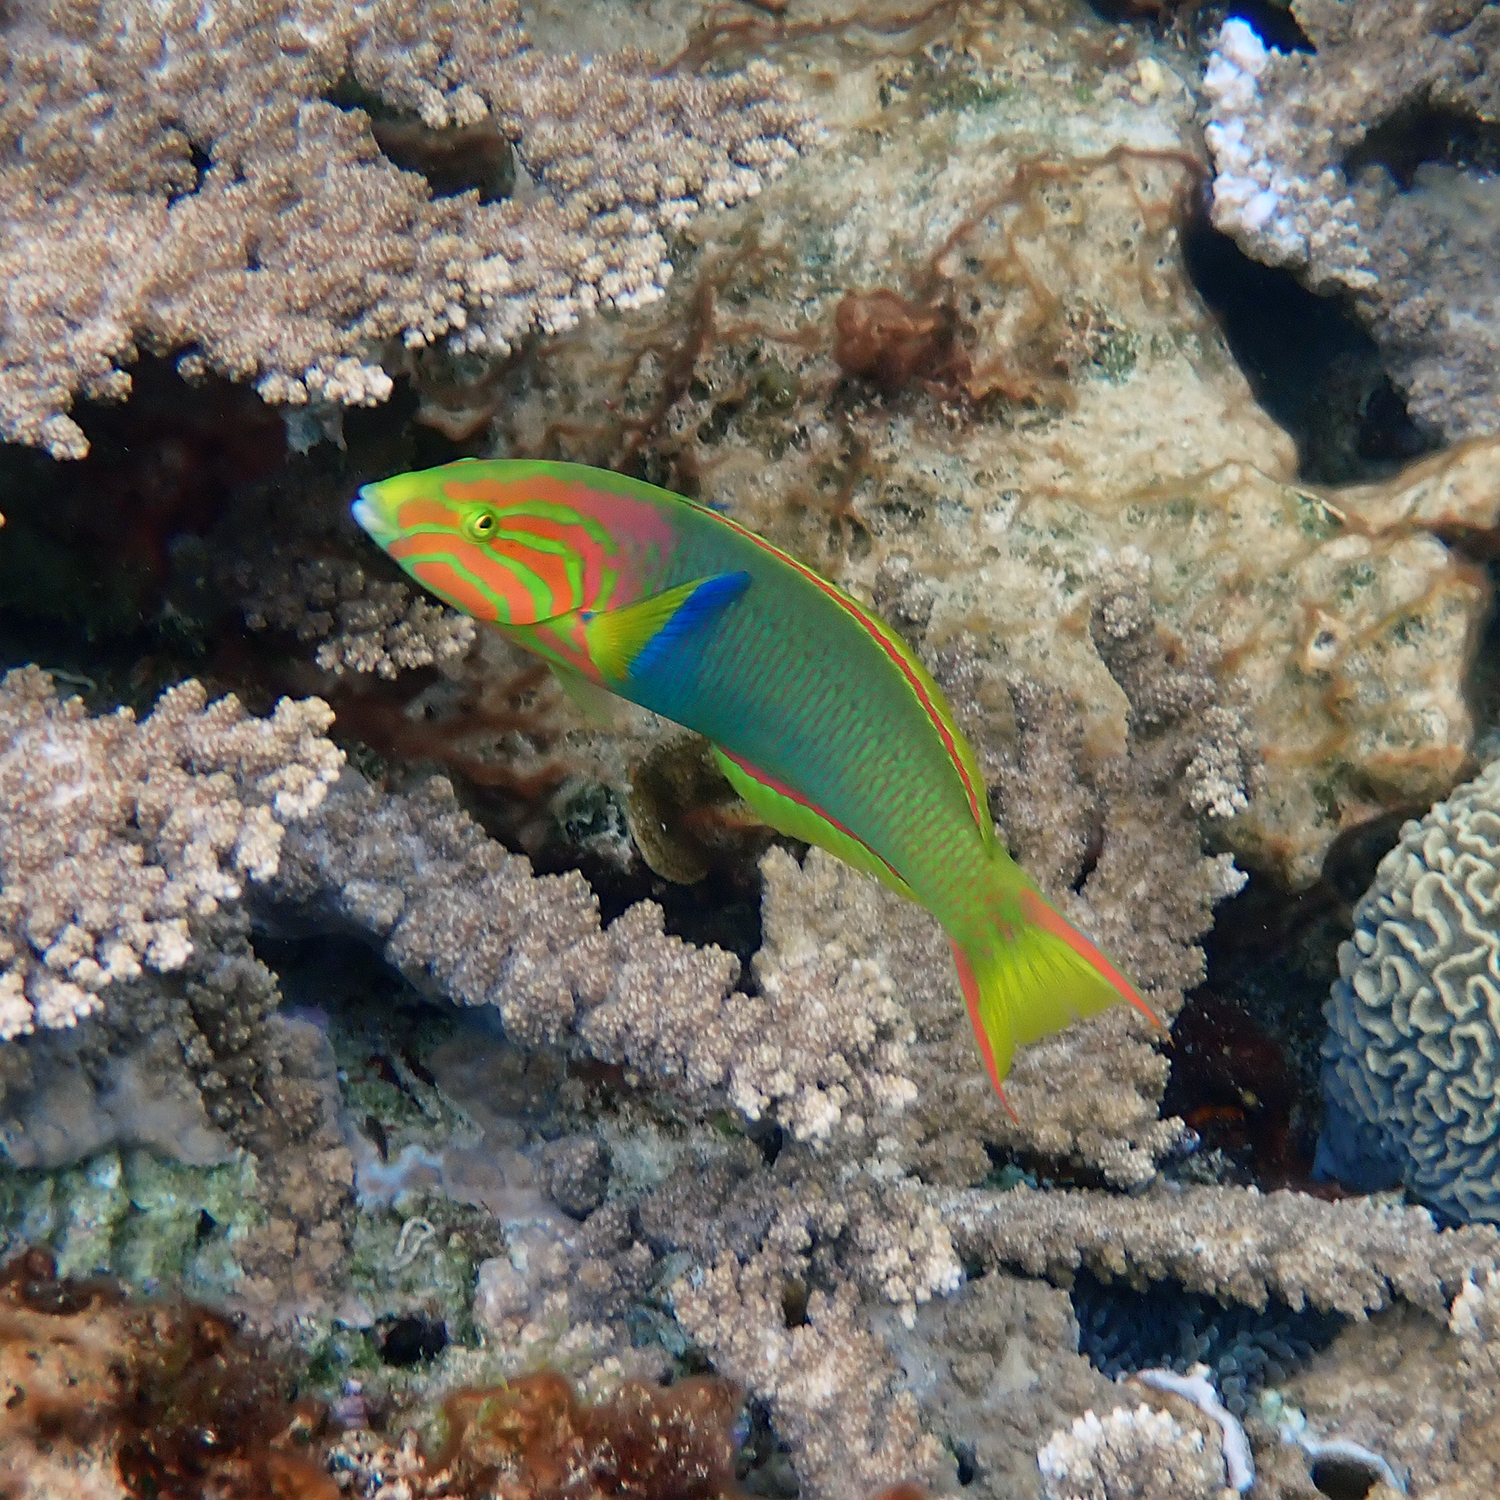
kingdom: Animalia
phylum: Chordata
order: Perciformes
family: Labridae
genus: Thalassoma
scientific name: Thalassoma lutescens
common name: Green moon wrasse
